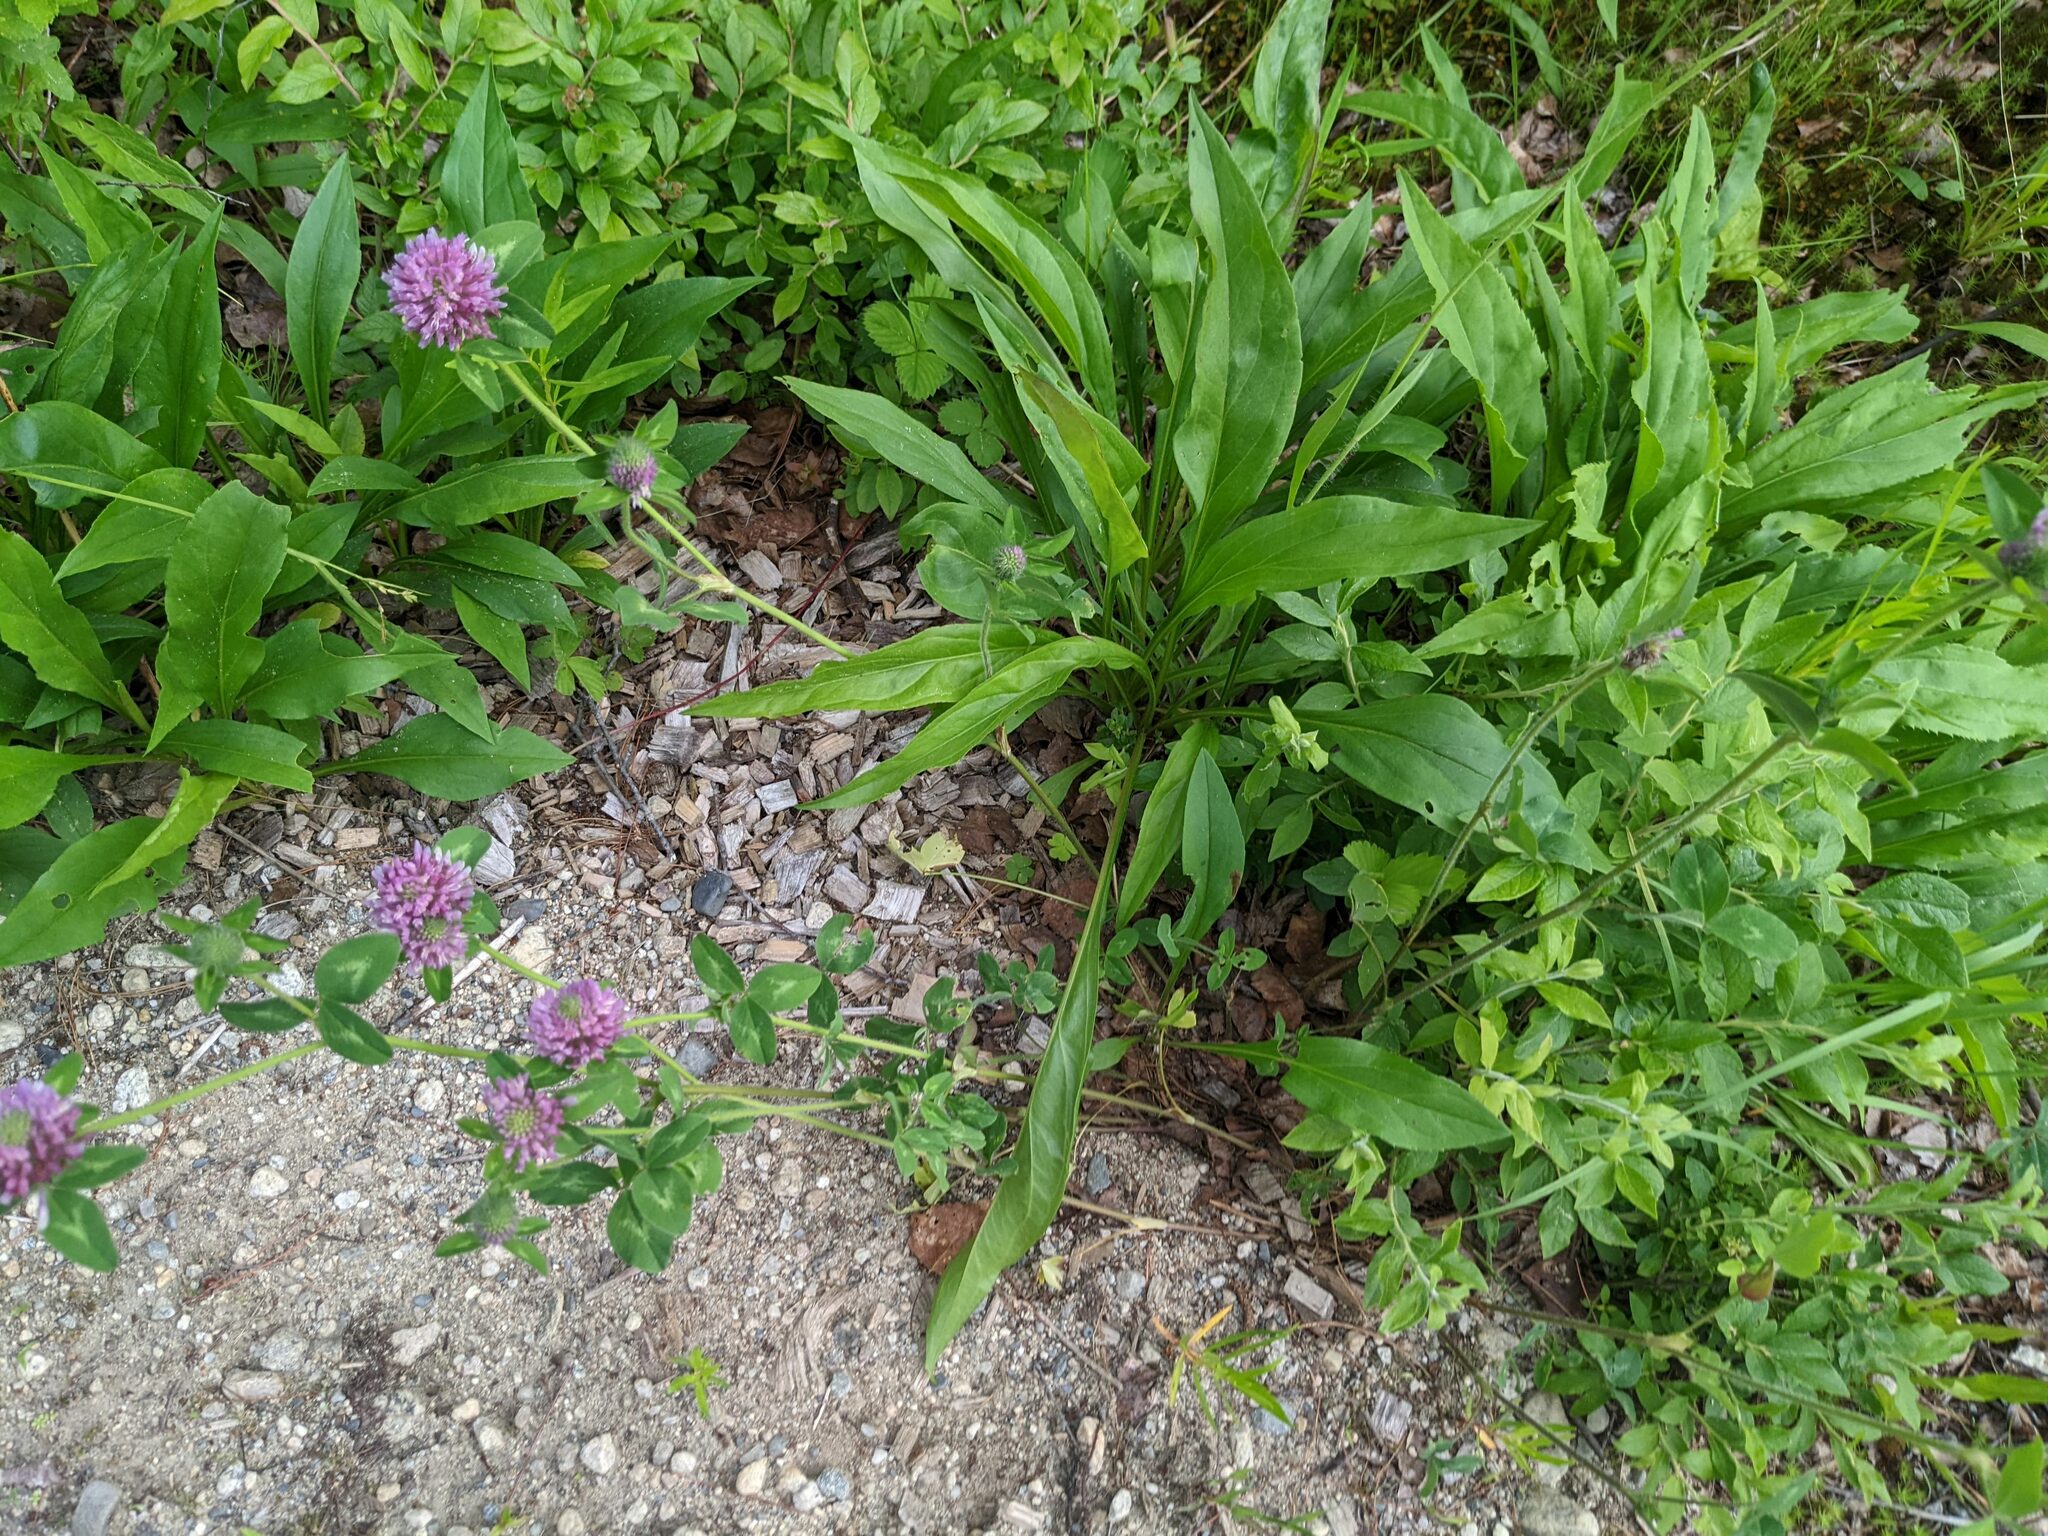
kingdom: Plantae
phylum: Tracheophyta
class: Magnoliopsida
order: Fabales
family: Fabaceae
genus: Trifolium
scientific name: Trifolium pratense
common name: Red clover
